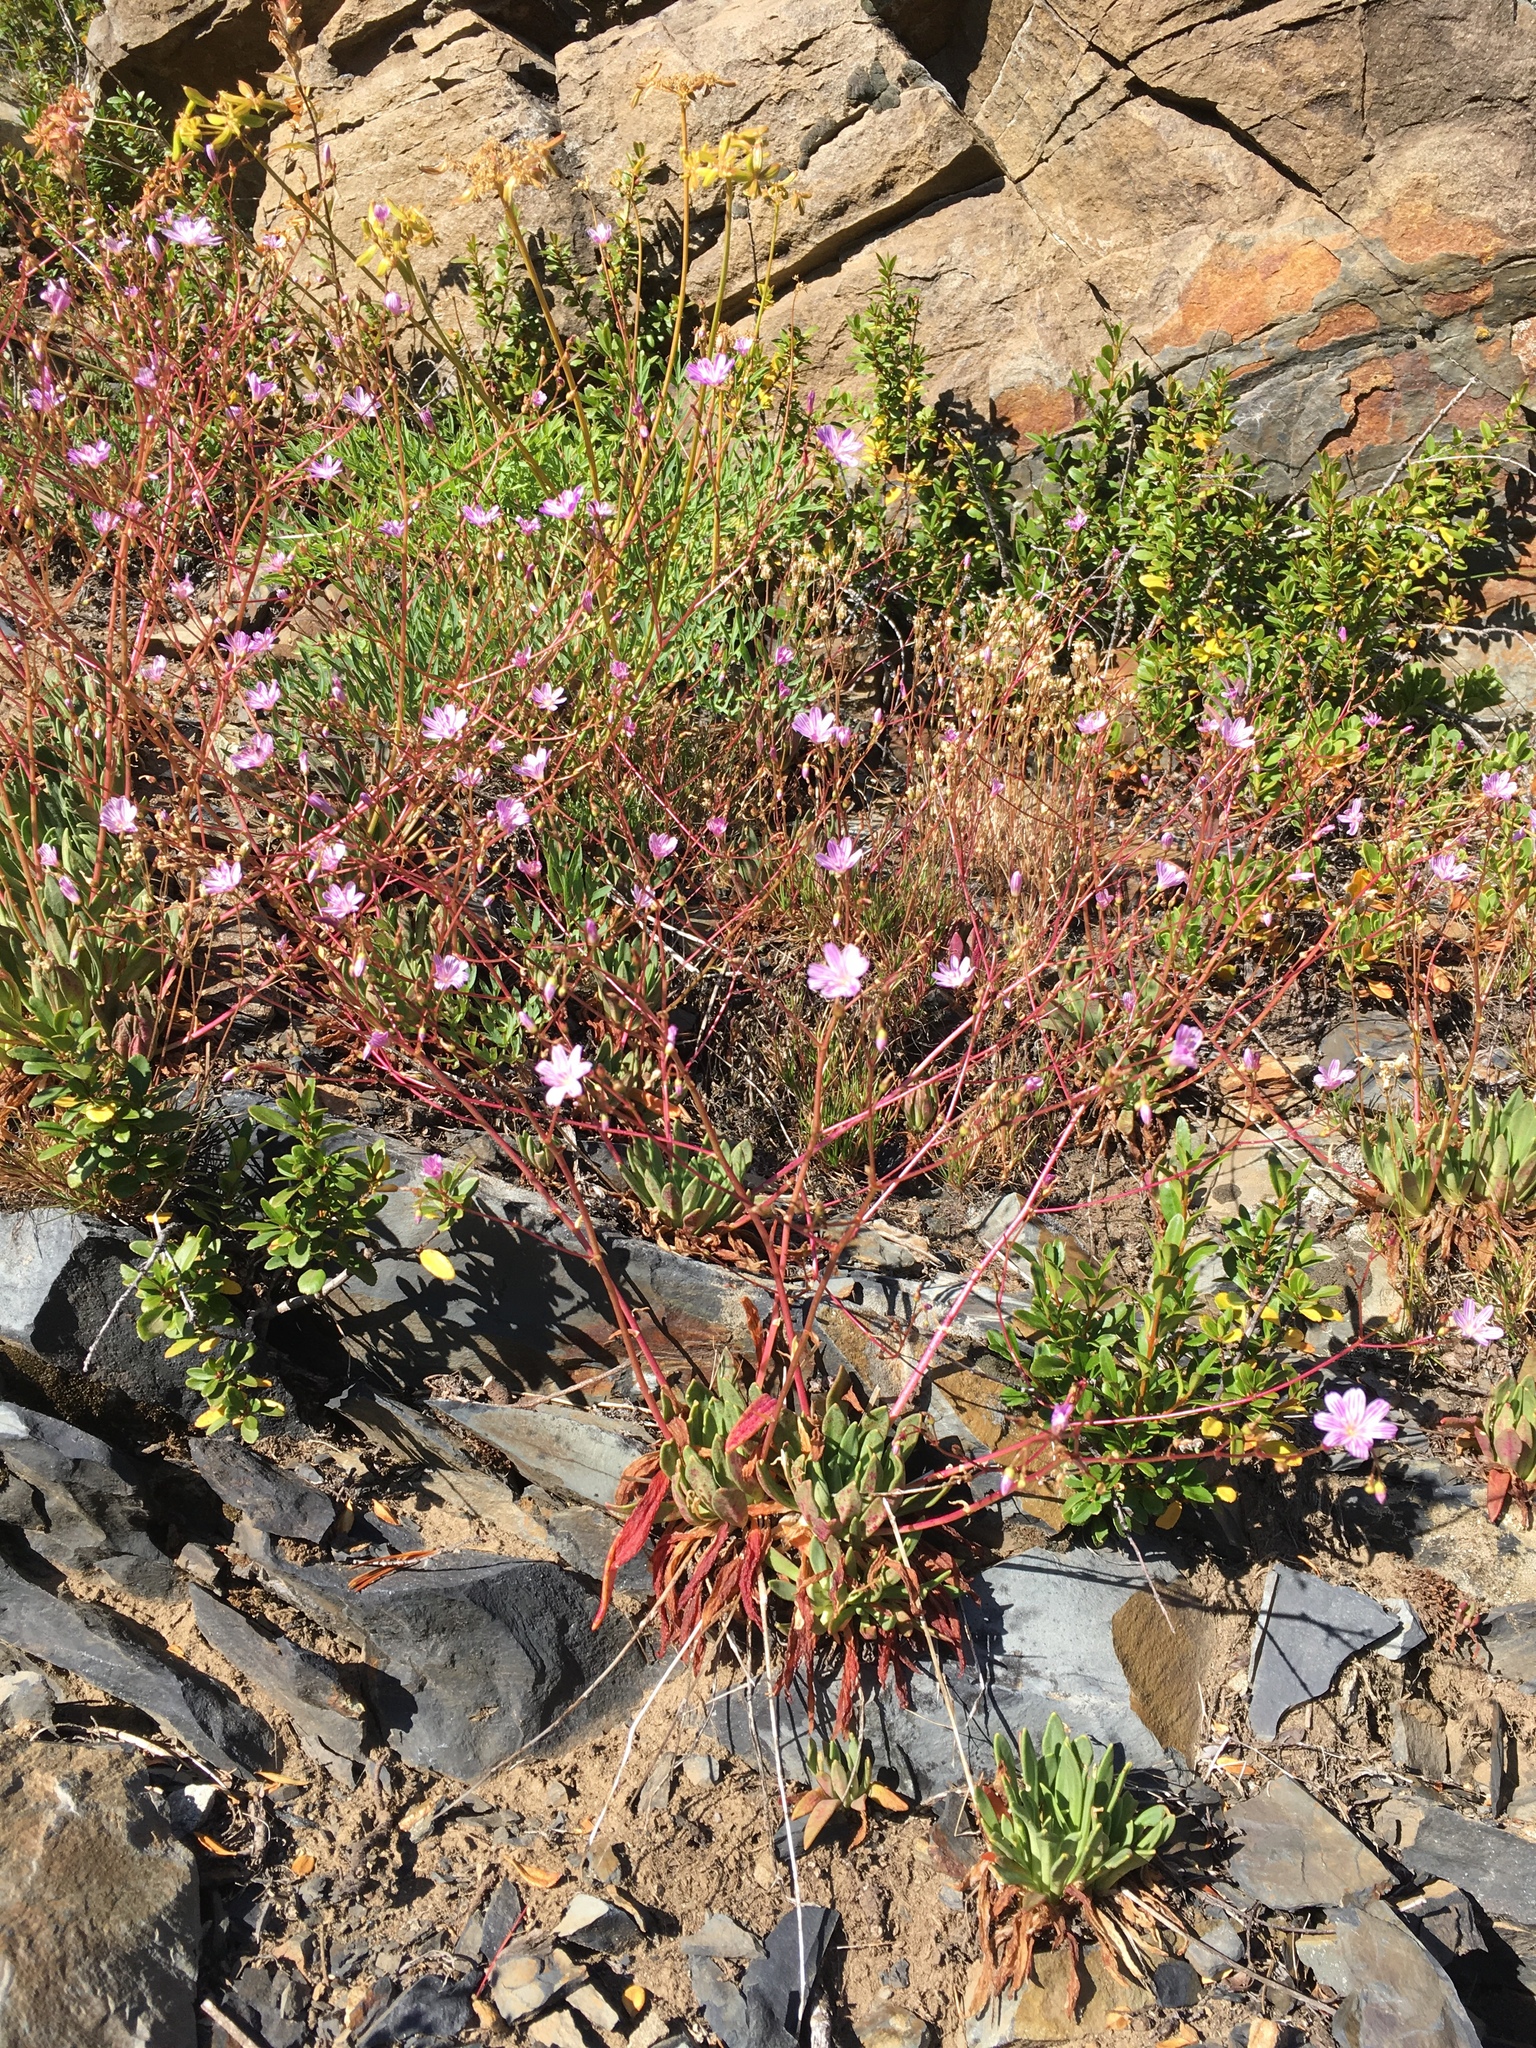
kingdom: Plantae
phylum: Tracheophyta
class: Magnoliopsida
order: Caryophyllales
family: Montiaceae
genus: Lewisia
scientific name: Lewisia columbiana
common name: Columbia lewisia
